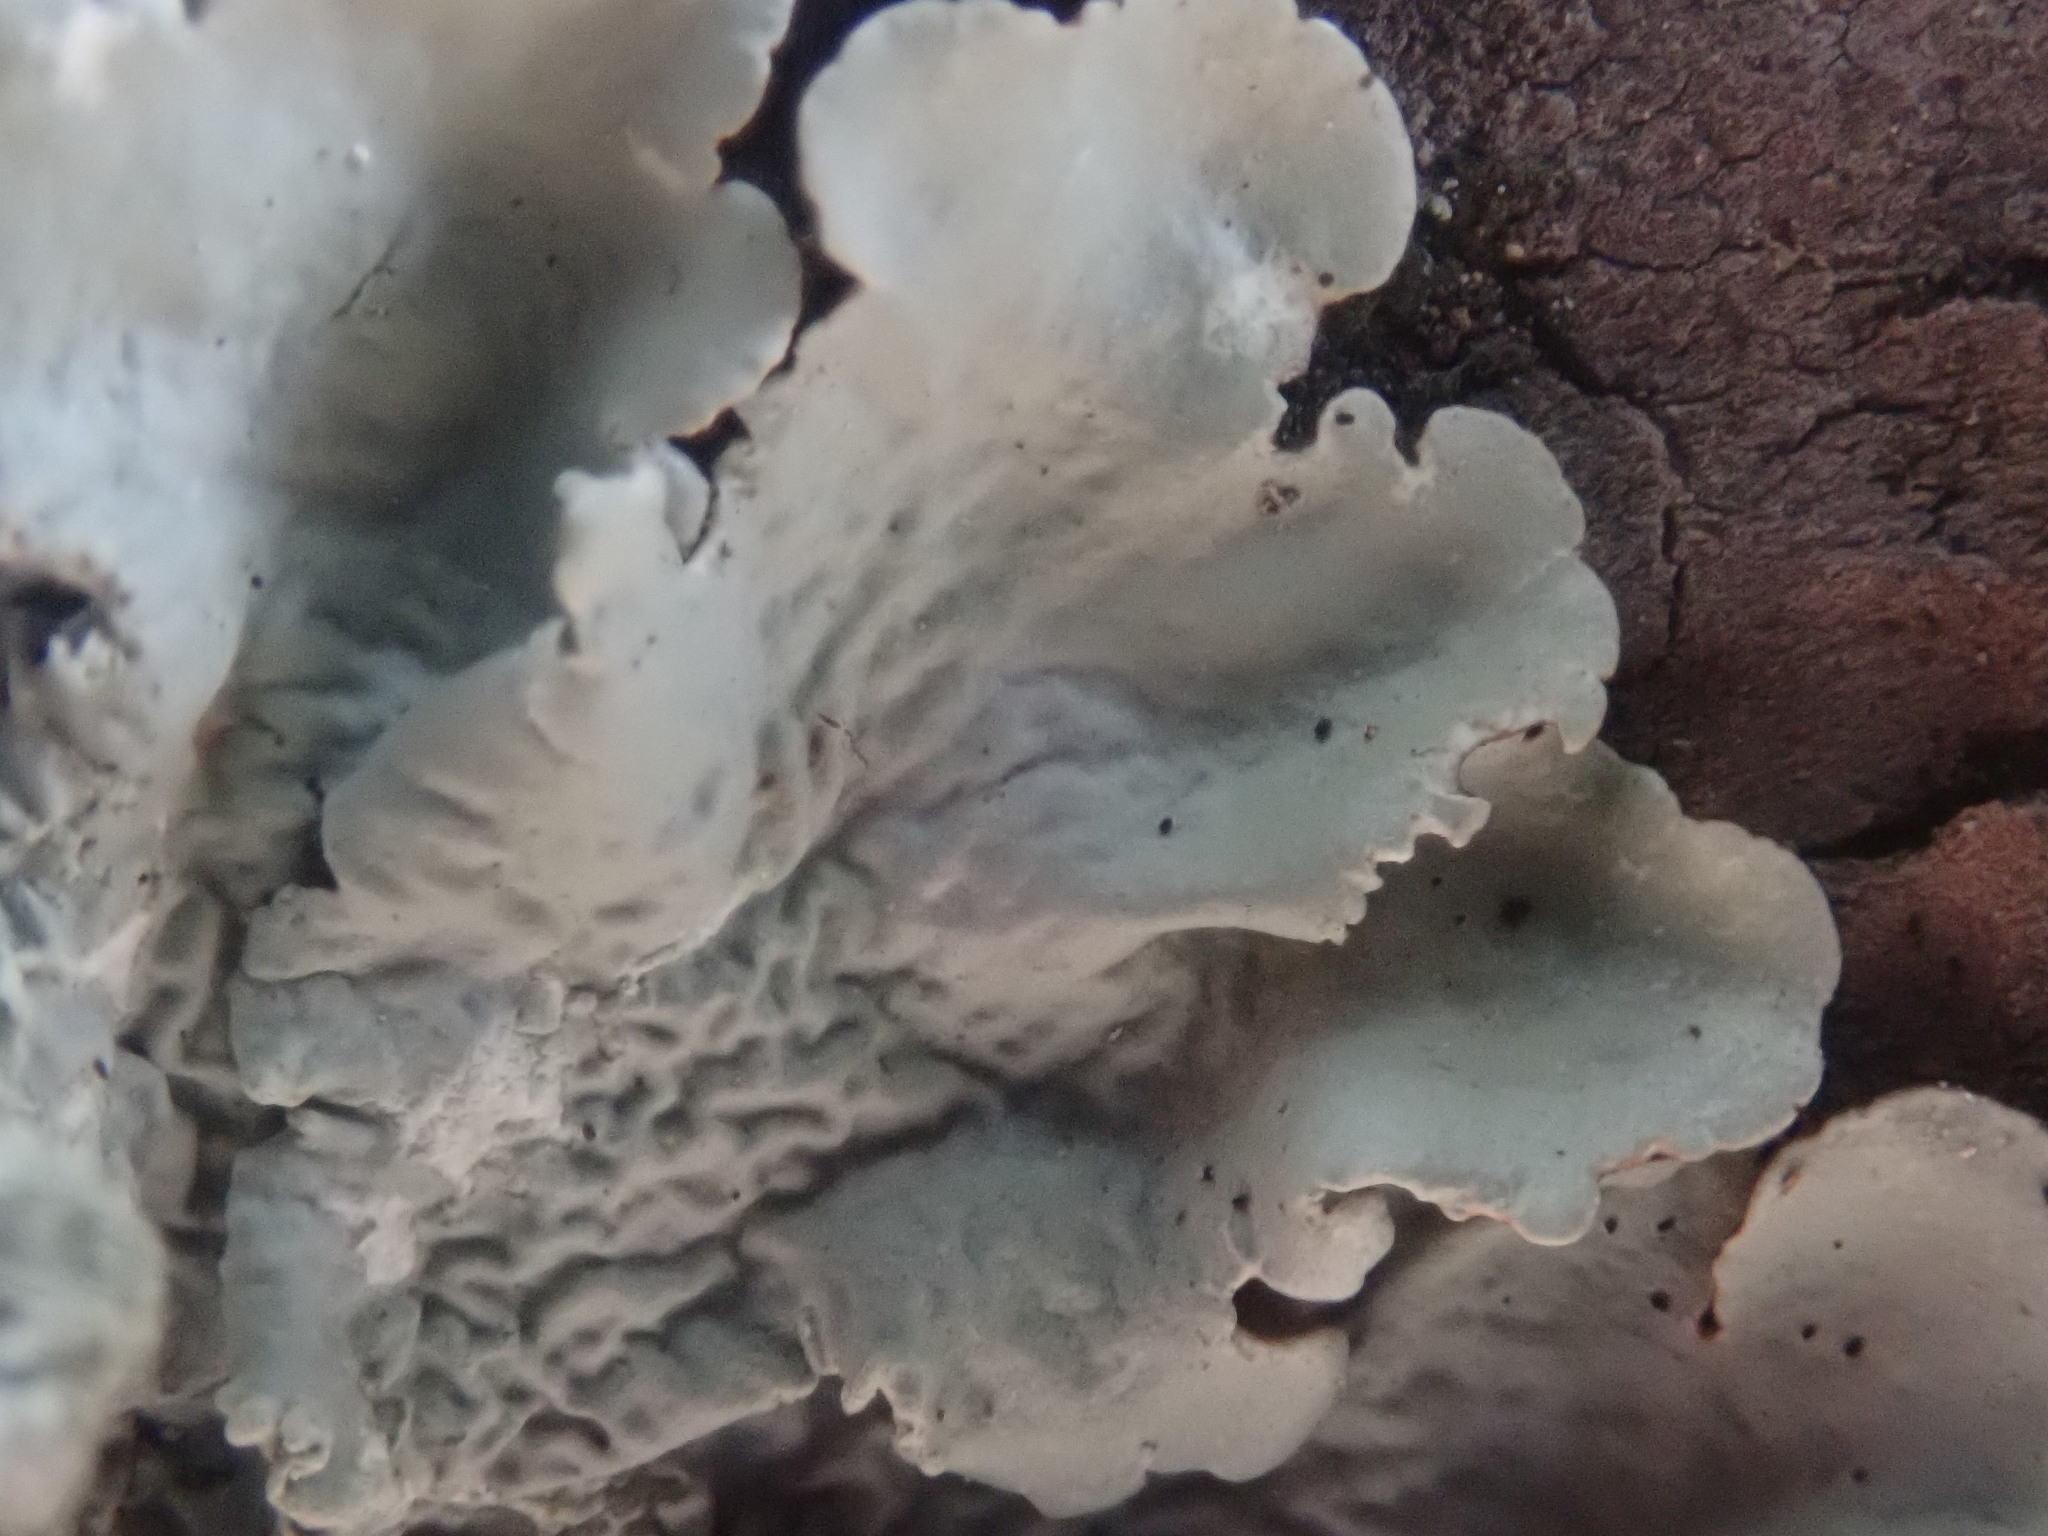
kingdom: Fungi
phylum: Ascomycota
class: Lecanoromycetes
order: Lecanorales
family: Parmeliaceae
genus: Flavoparmelia
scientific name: Flavoparmelia caperata
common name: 40-mile per hour lichen
